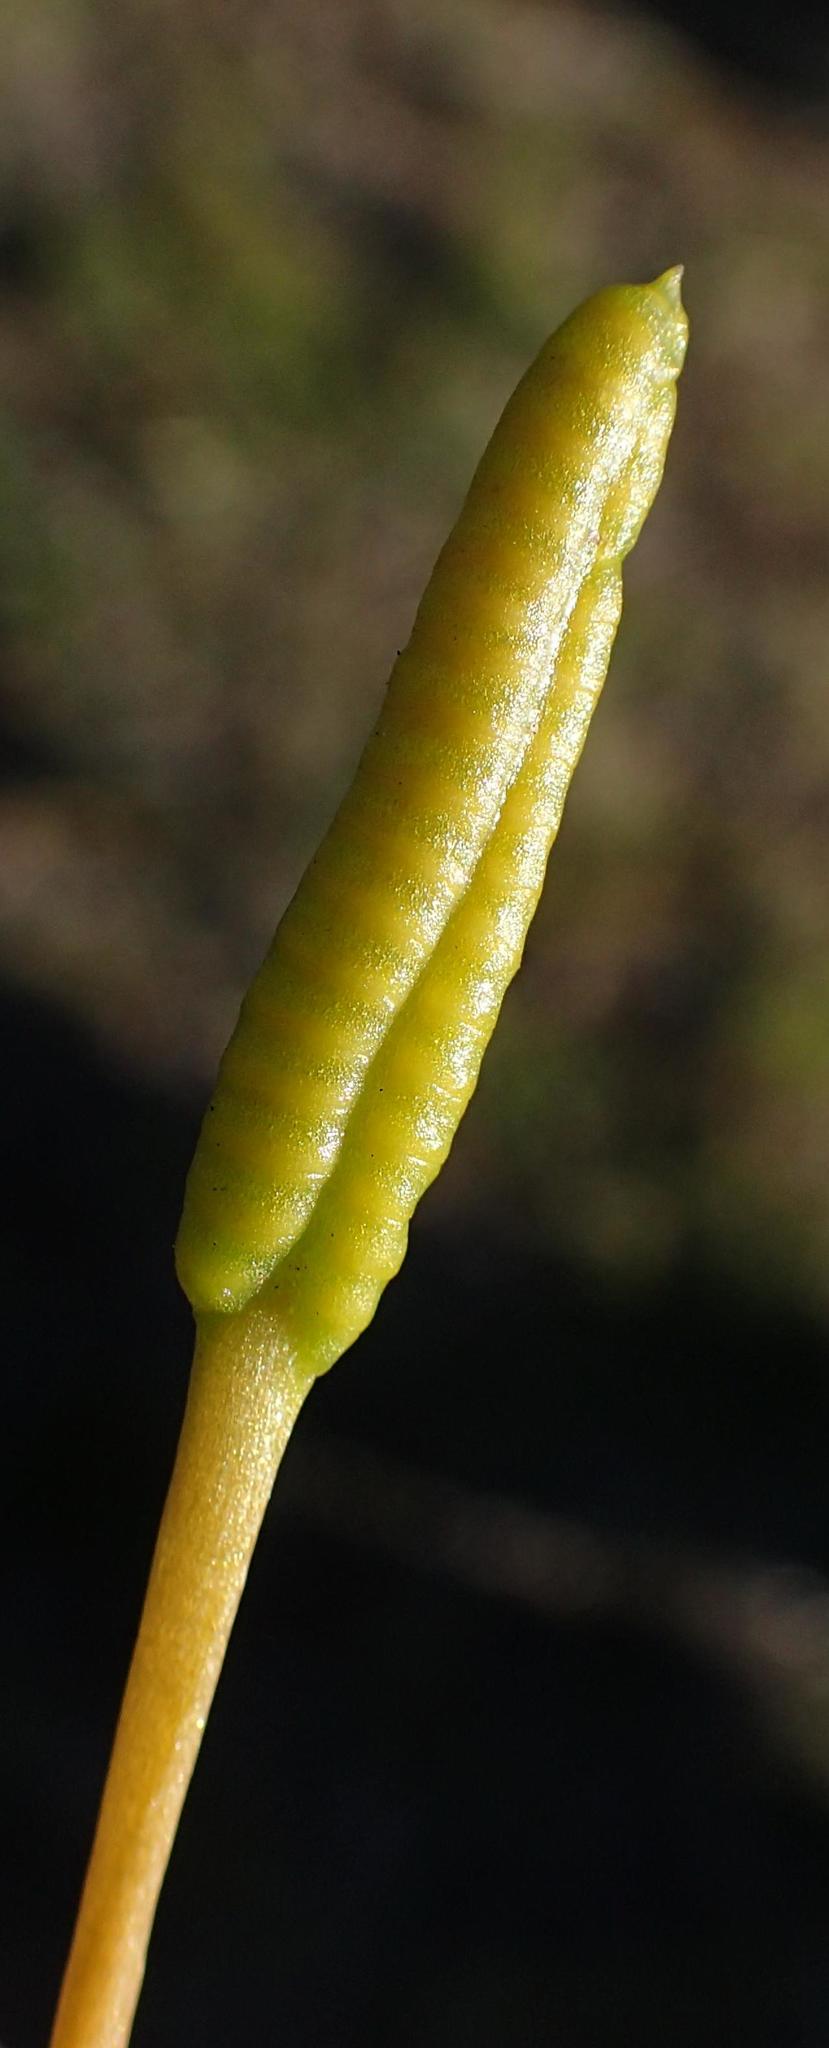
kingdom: Plantae
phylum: Tracheophyta
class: Polypodiopsida
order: Ophioglossales
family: Ophioglossaceae
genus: Ophioglossum
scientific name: Ophioglossum polyphyllum
